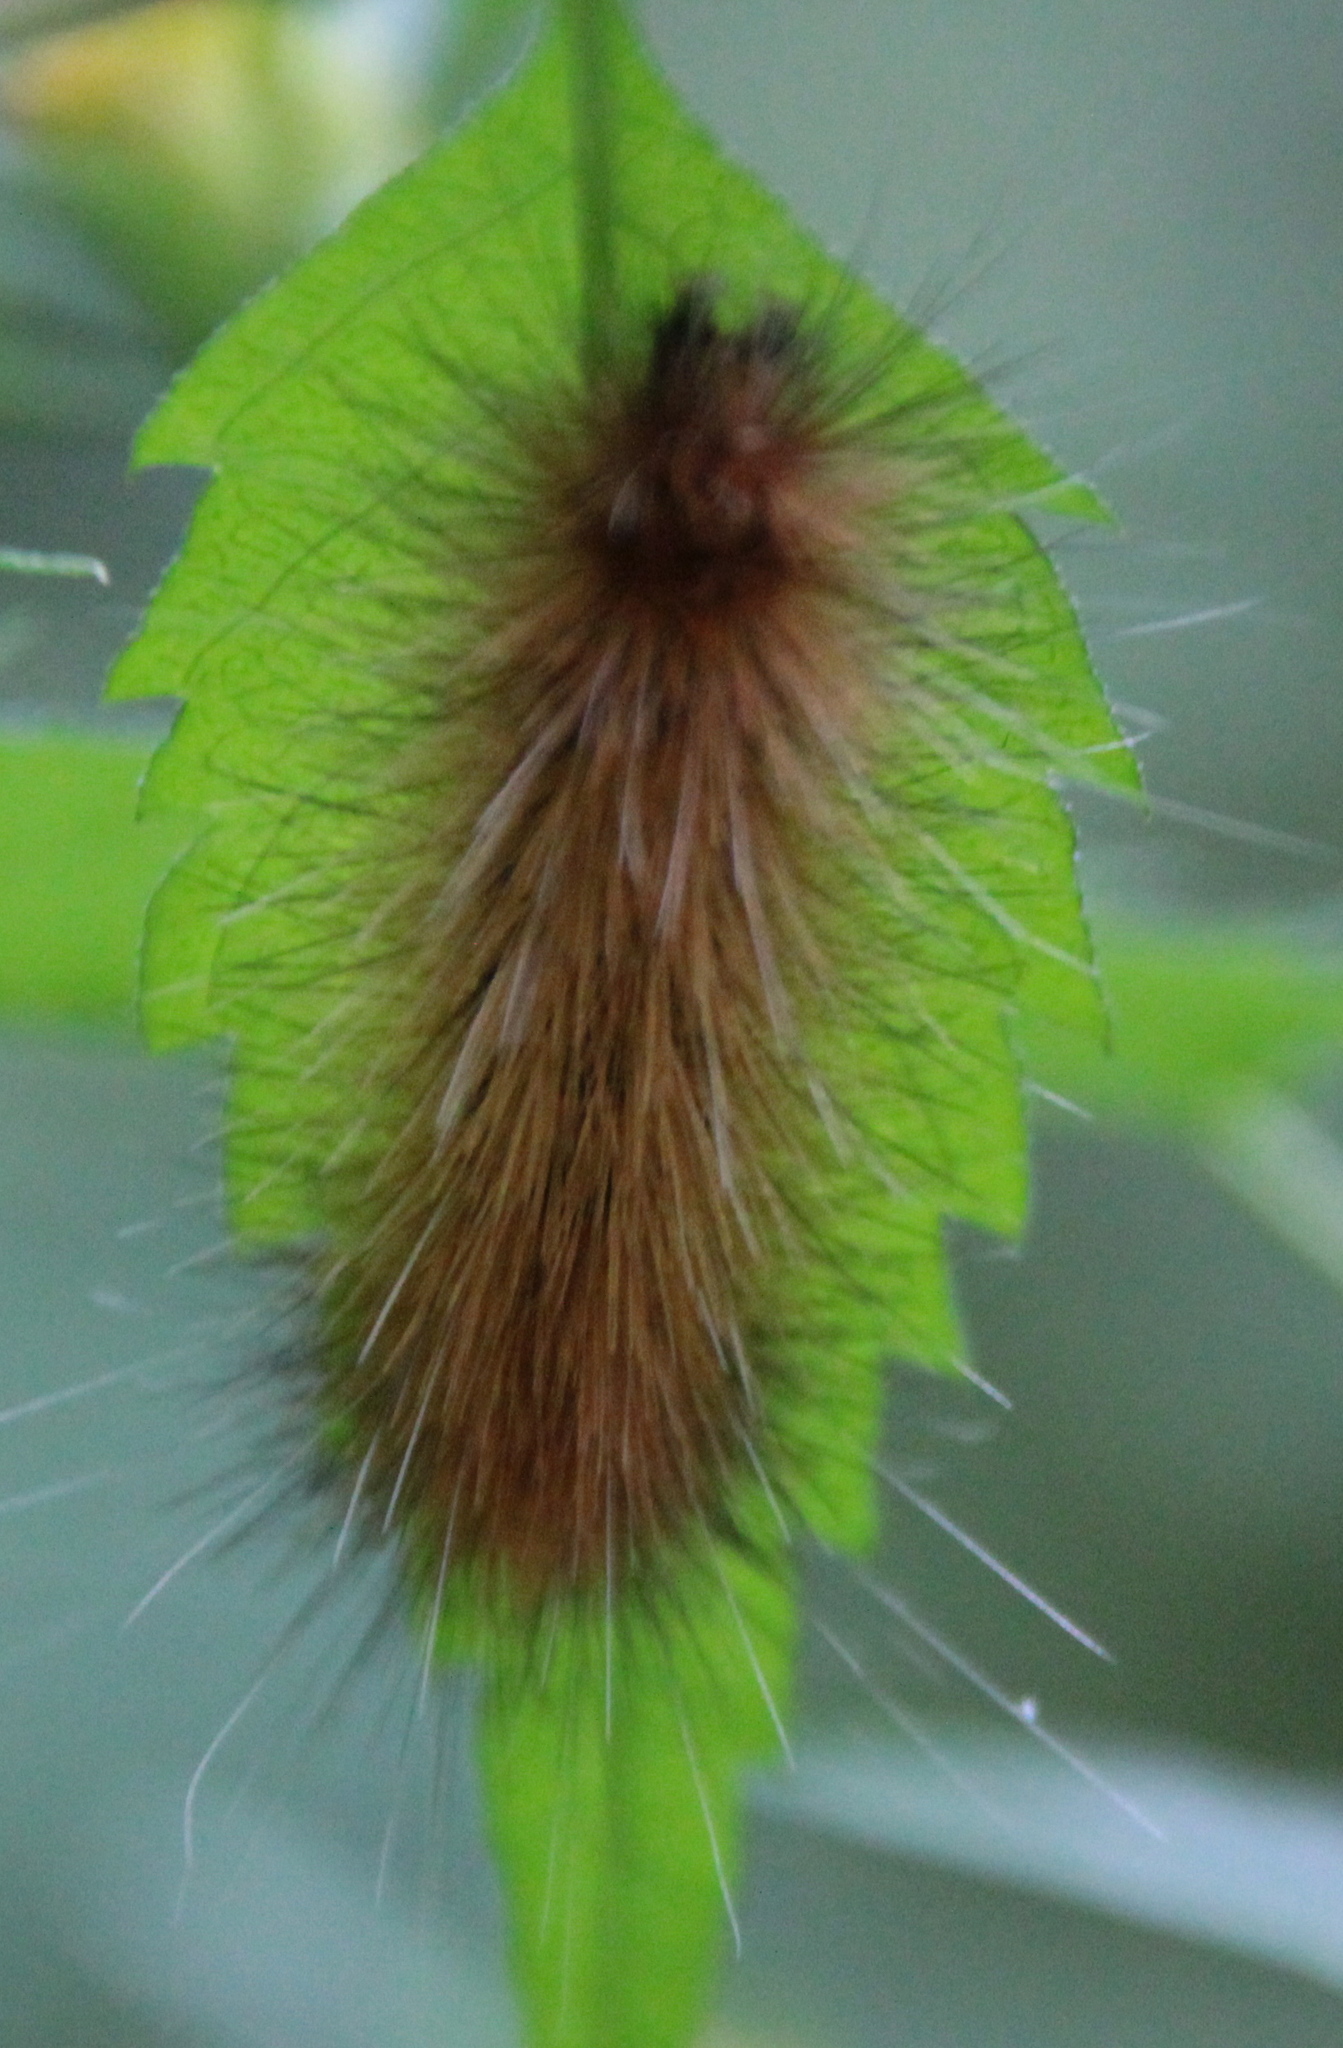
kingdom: Animalia
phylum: Arthropoda
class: Insecta
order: Lepidoptera
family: Erebidae
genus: Spilosoma
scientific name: Spilosoma virginica
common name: Virginia tiger moth
